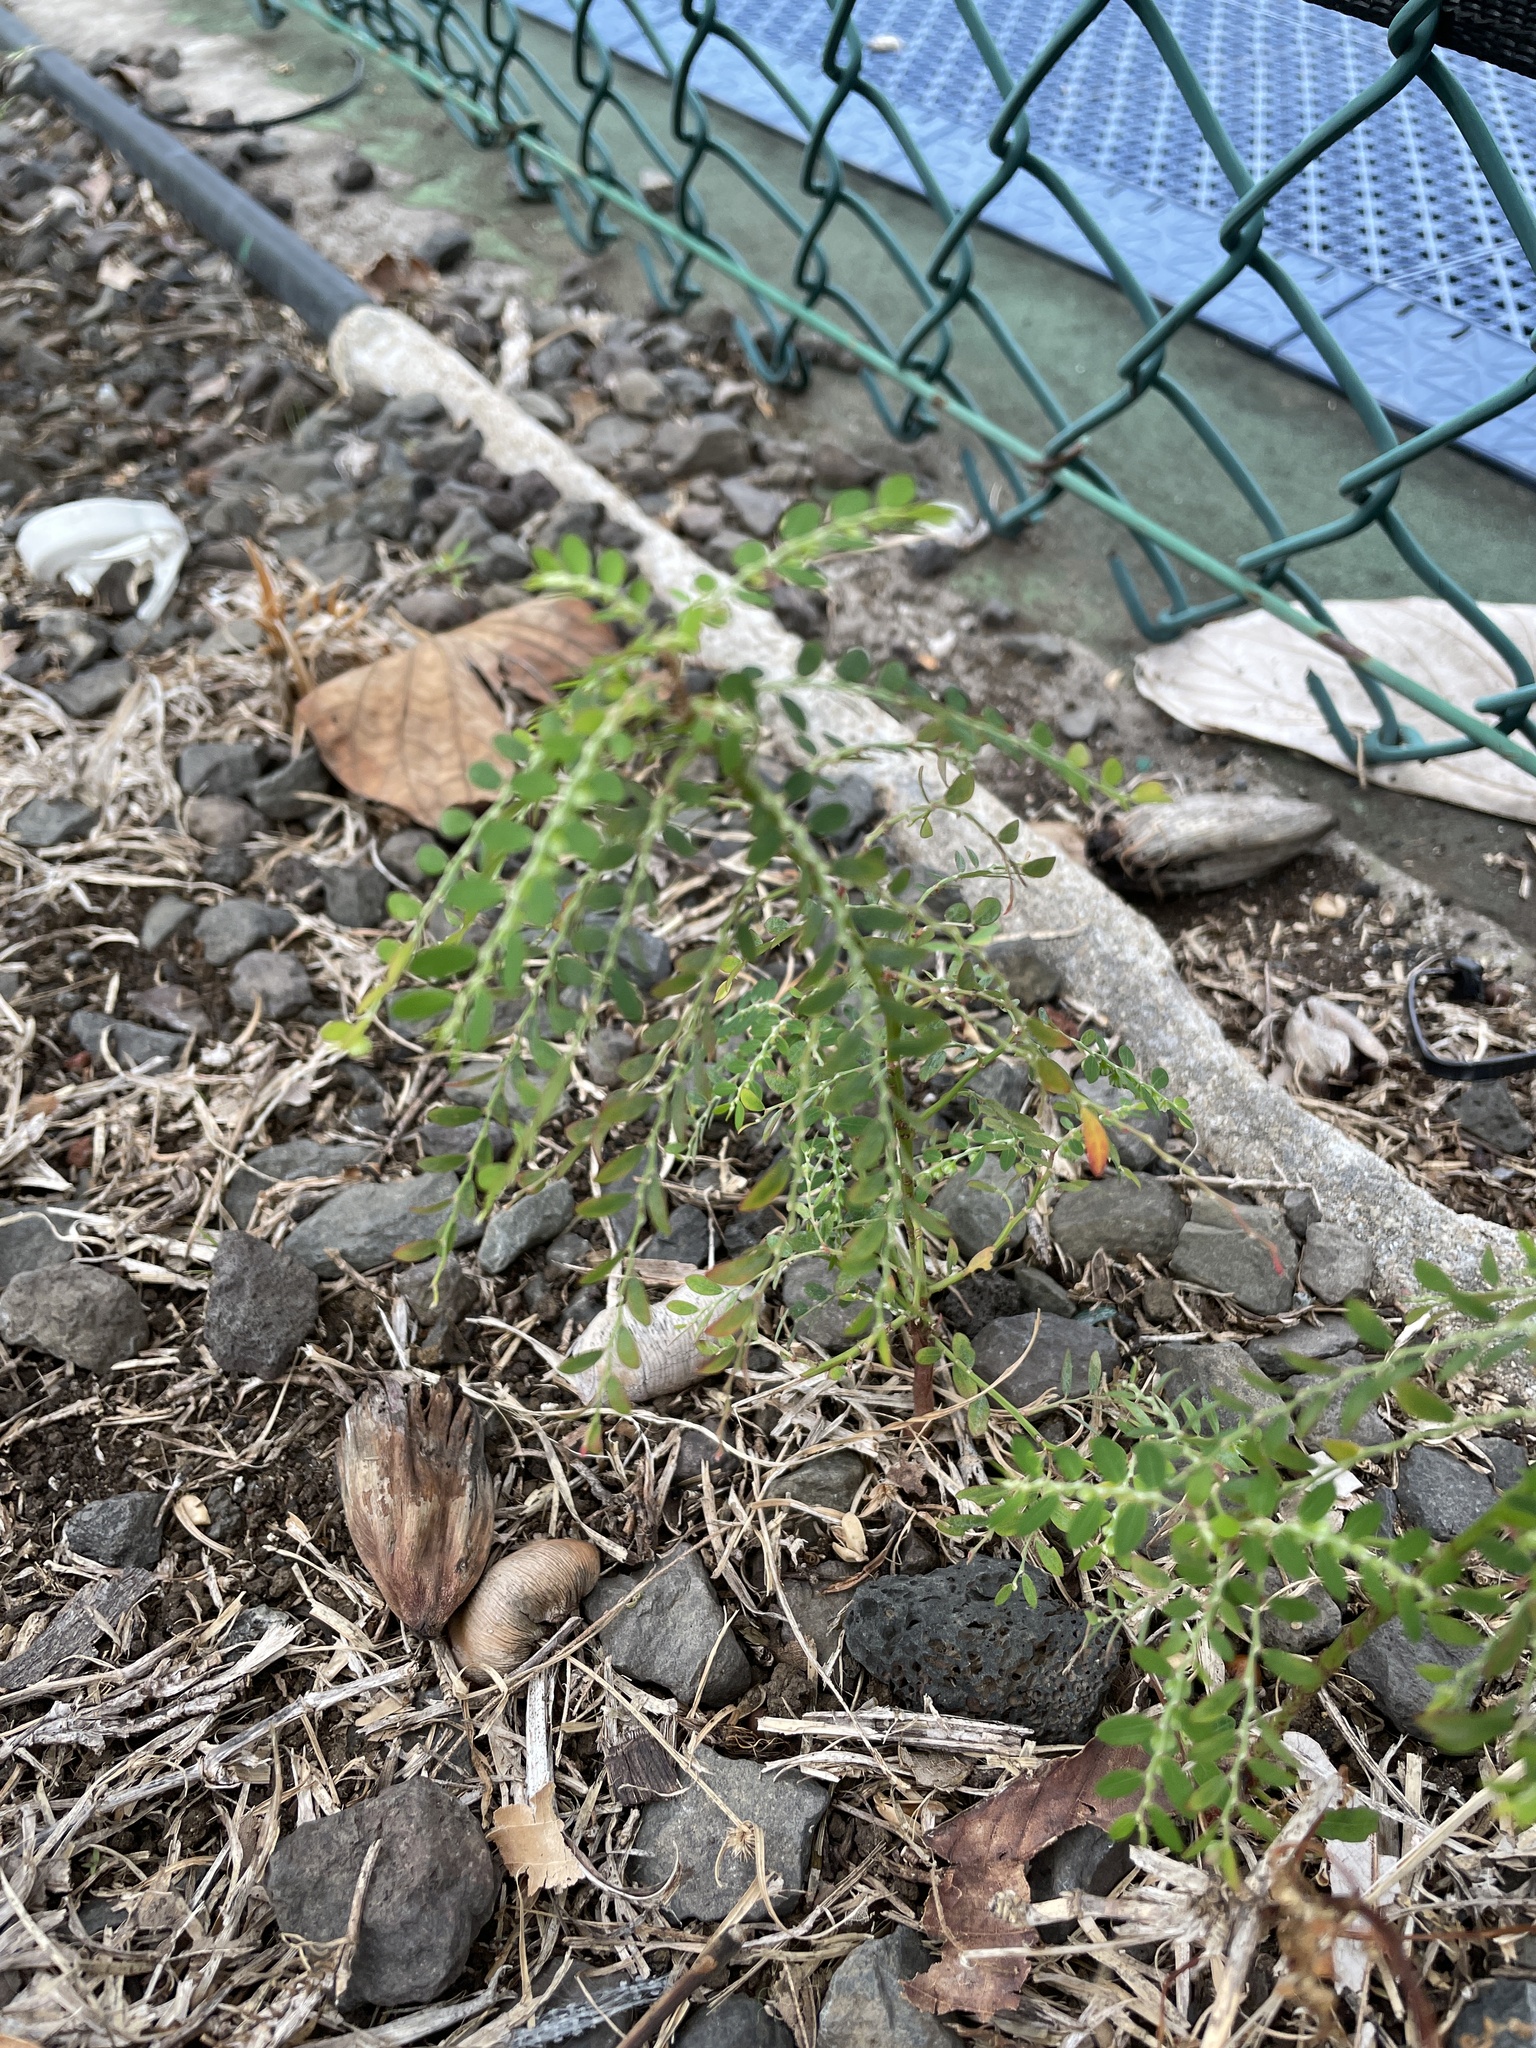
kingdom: Plantae
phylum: Tracheophyta
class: Magnoliopsida
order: Malpighiales
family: Phyllanthaceae
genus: Phyllanthus
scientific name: Phyllanthus debilis
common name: Niruri
